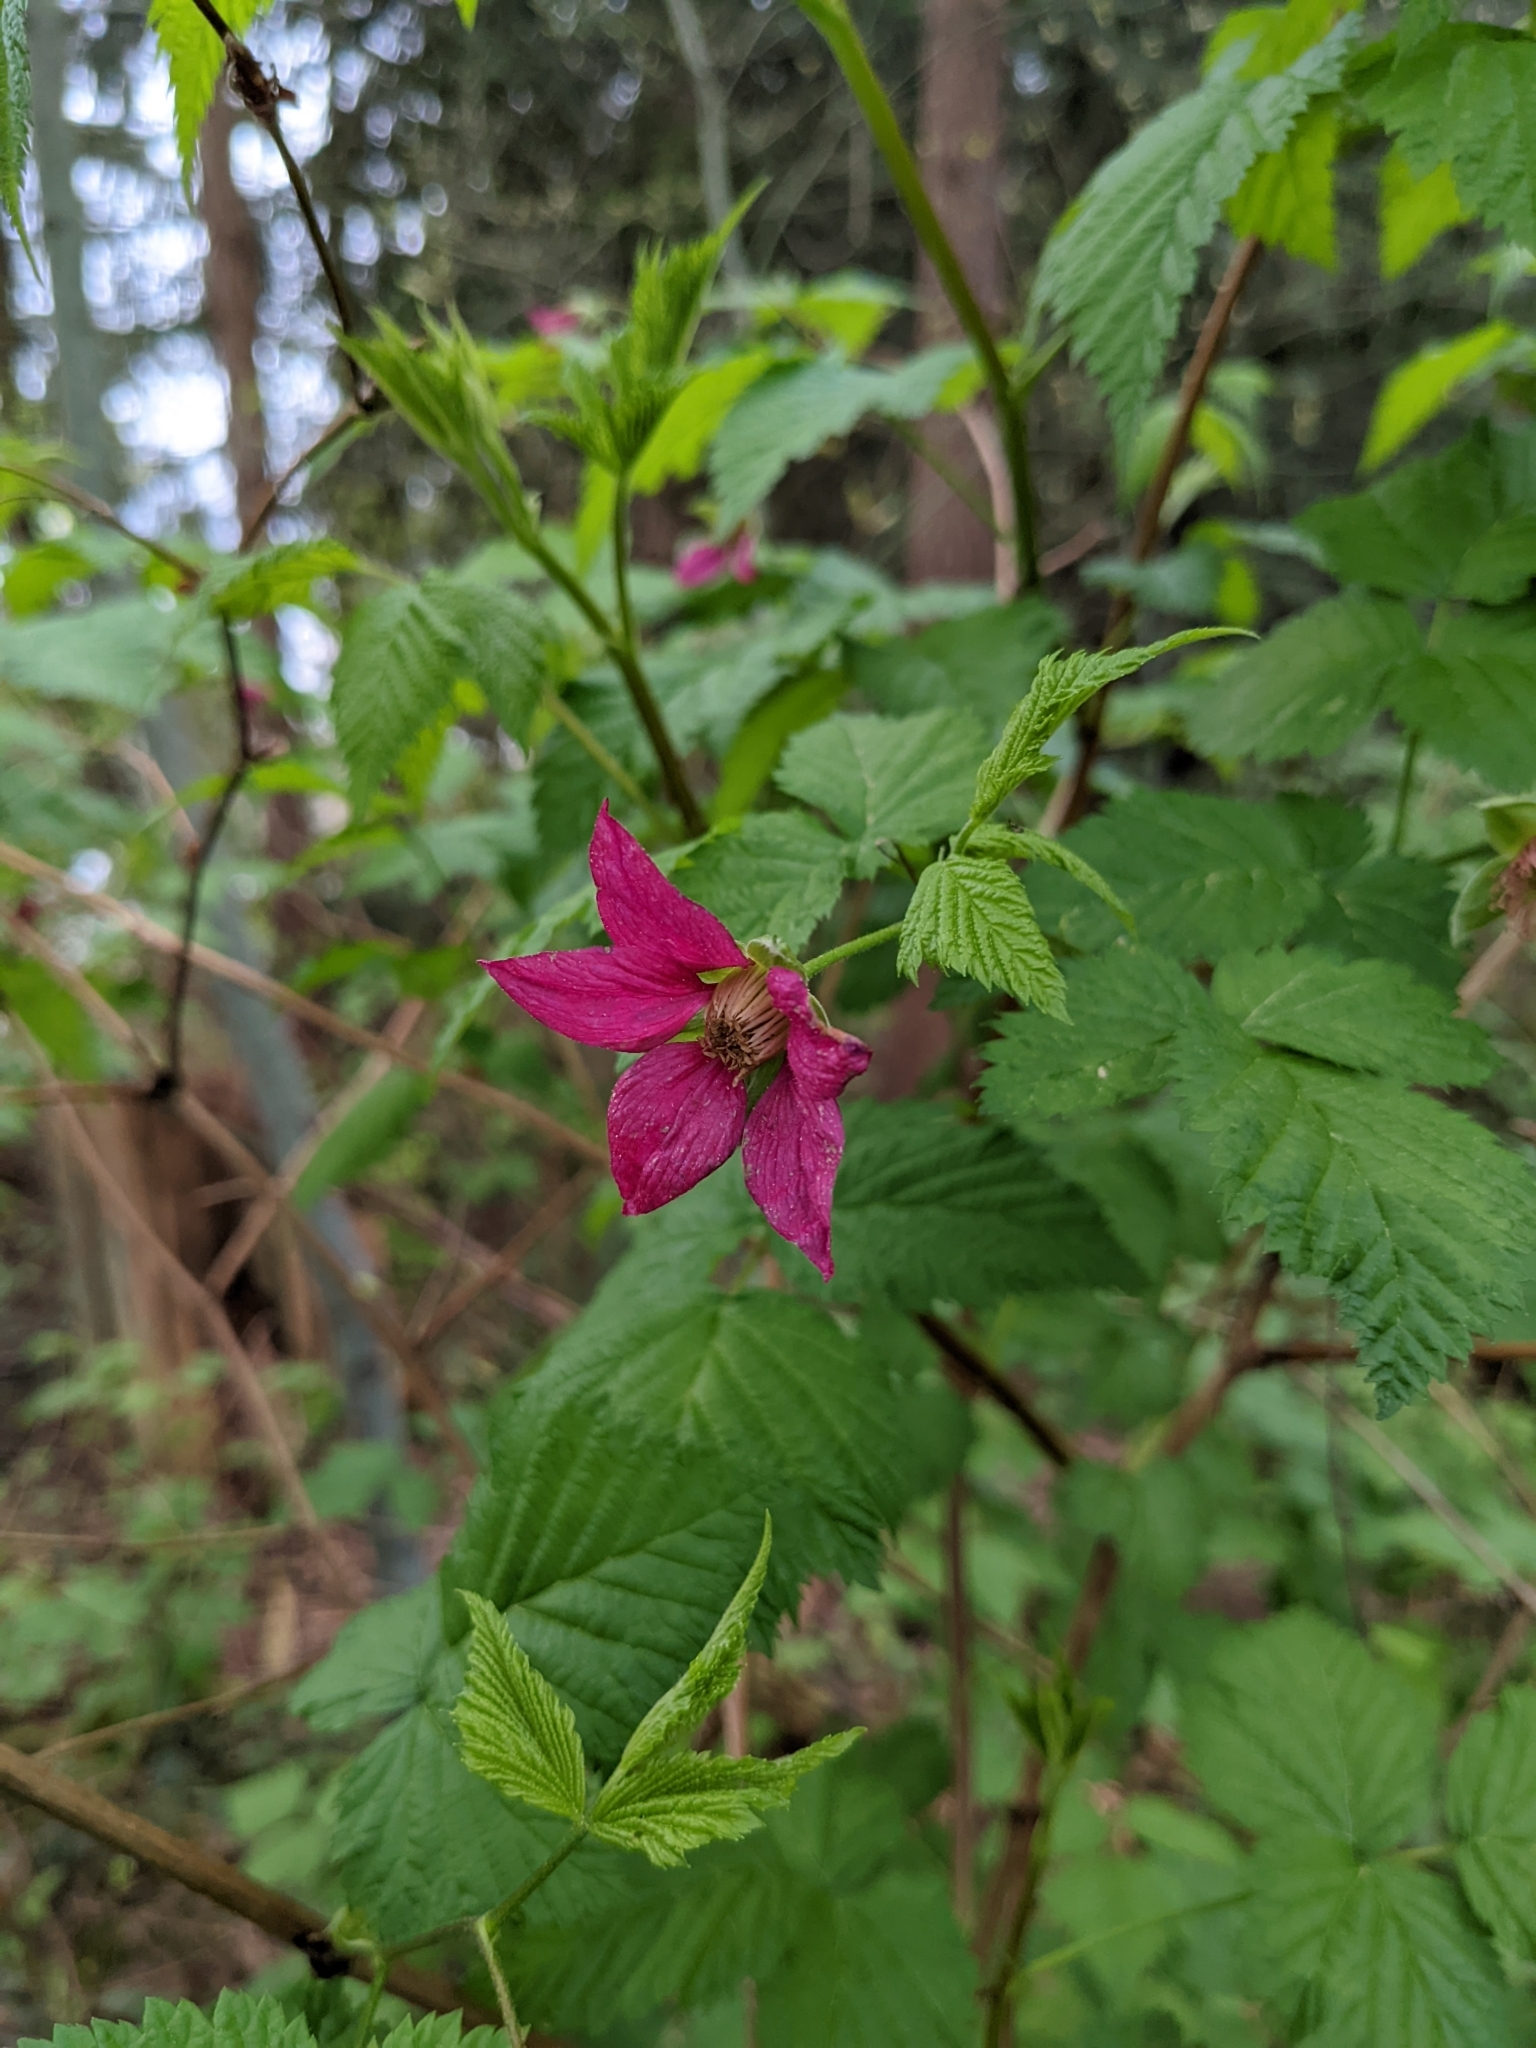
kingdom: Plantae
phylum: Tracheophyta
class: Magnoliopsida
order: Rosales
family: Rosaceae
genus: Rubus
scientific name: Rubus spectabilis
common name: Salmonberry
